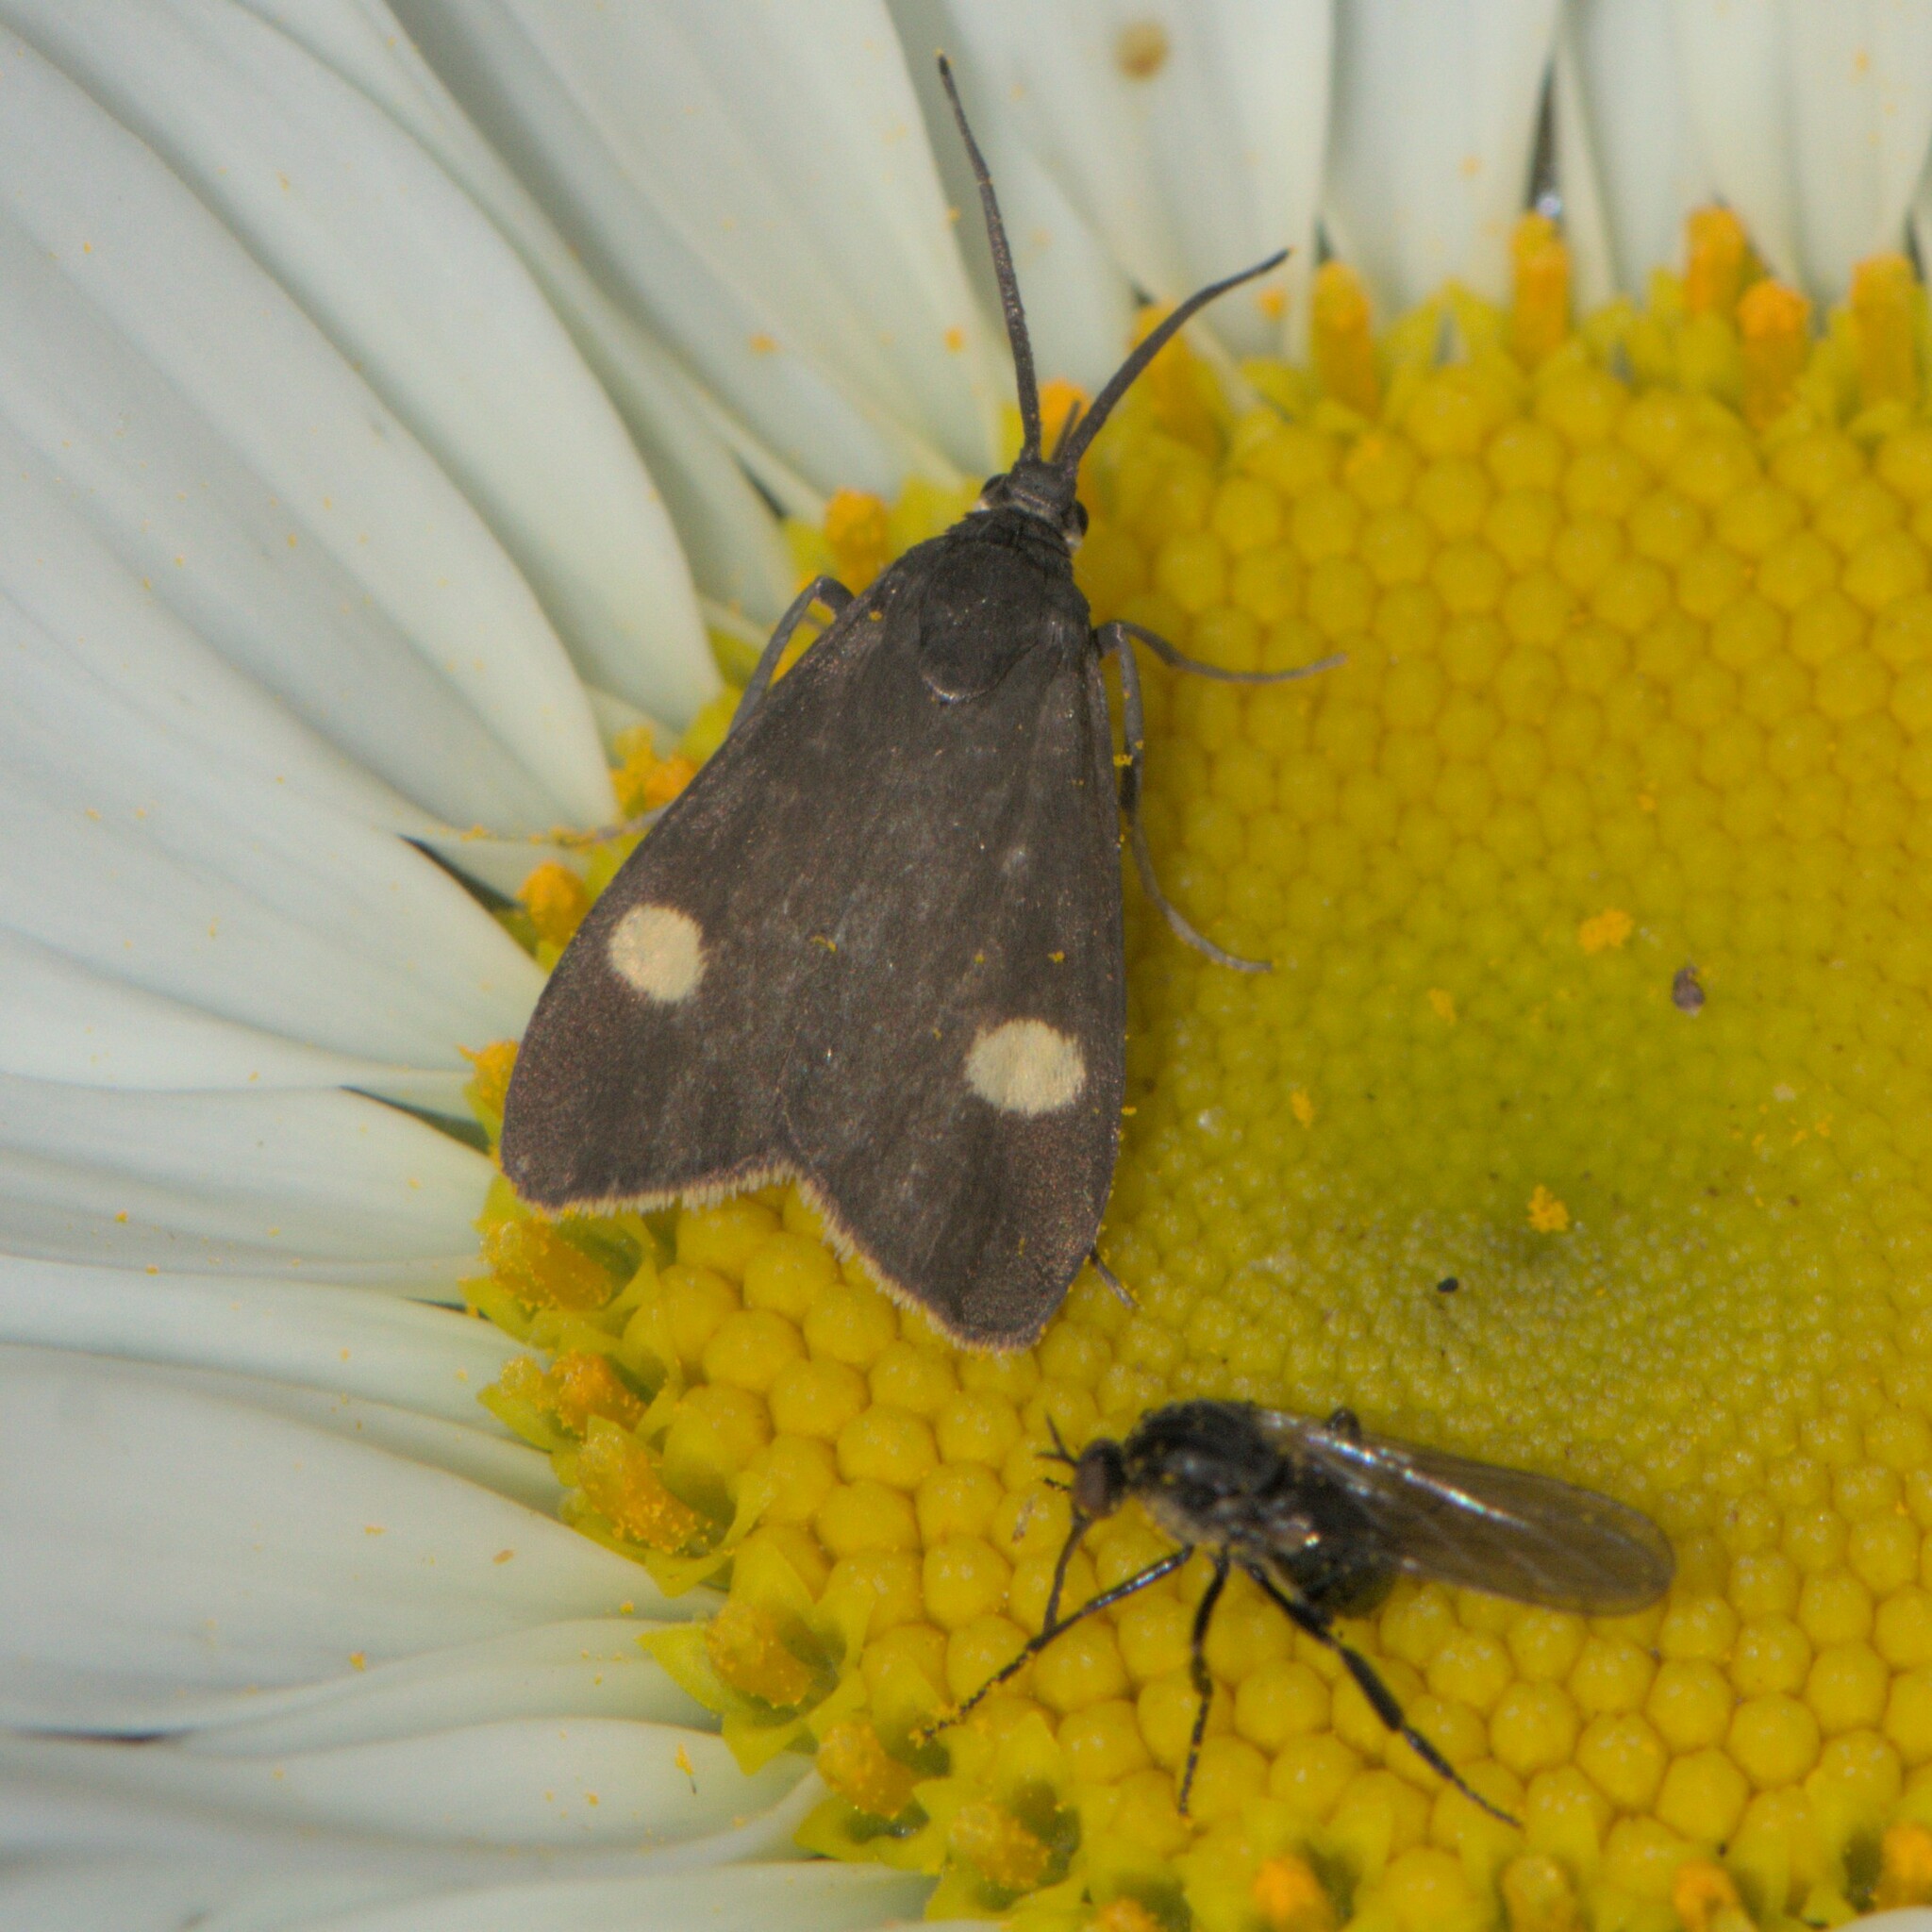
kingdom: Animalia
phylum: Arthropoda
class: Insecta
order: Lepidoptera
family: Zygaenidae
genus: Artona
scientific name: Artona quadrimaculata
